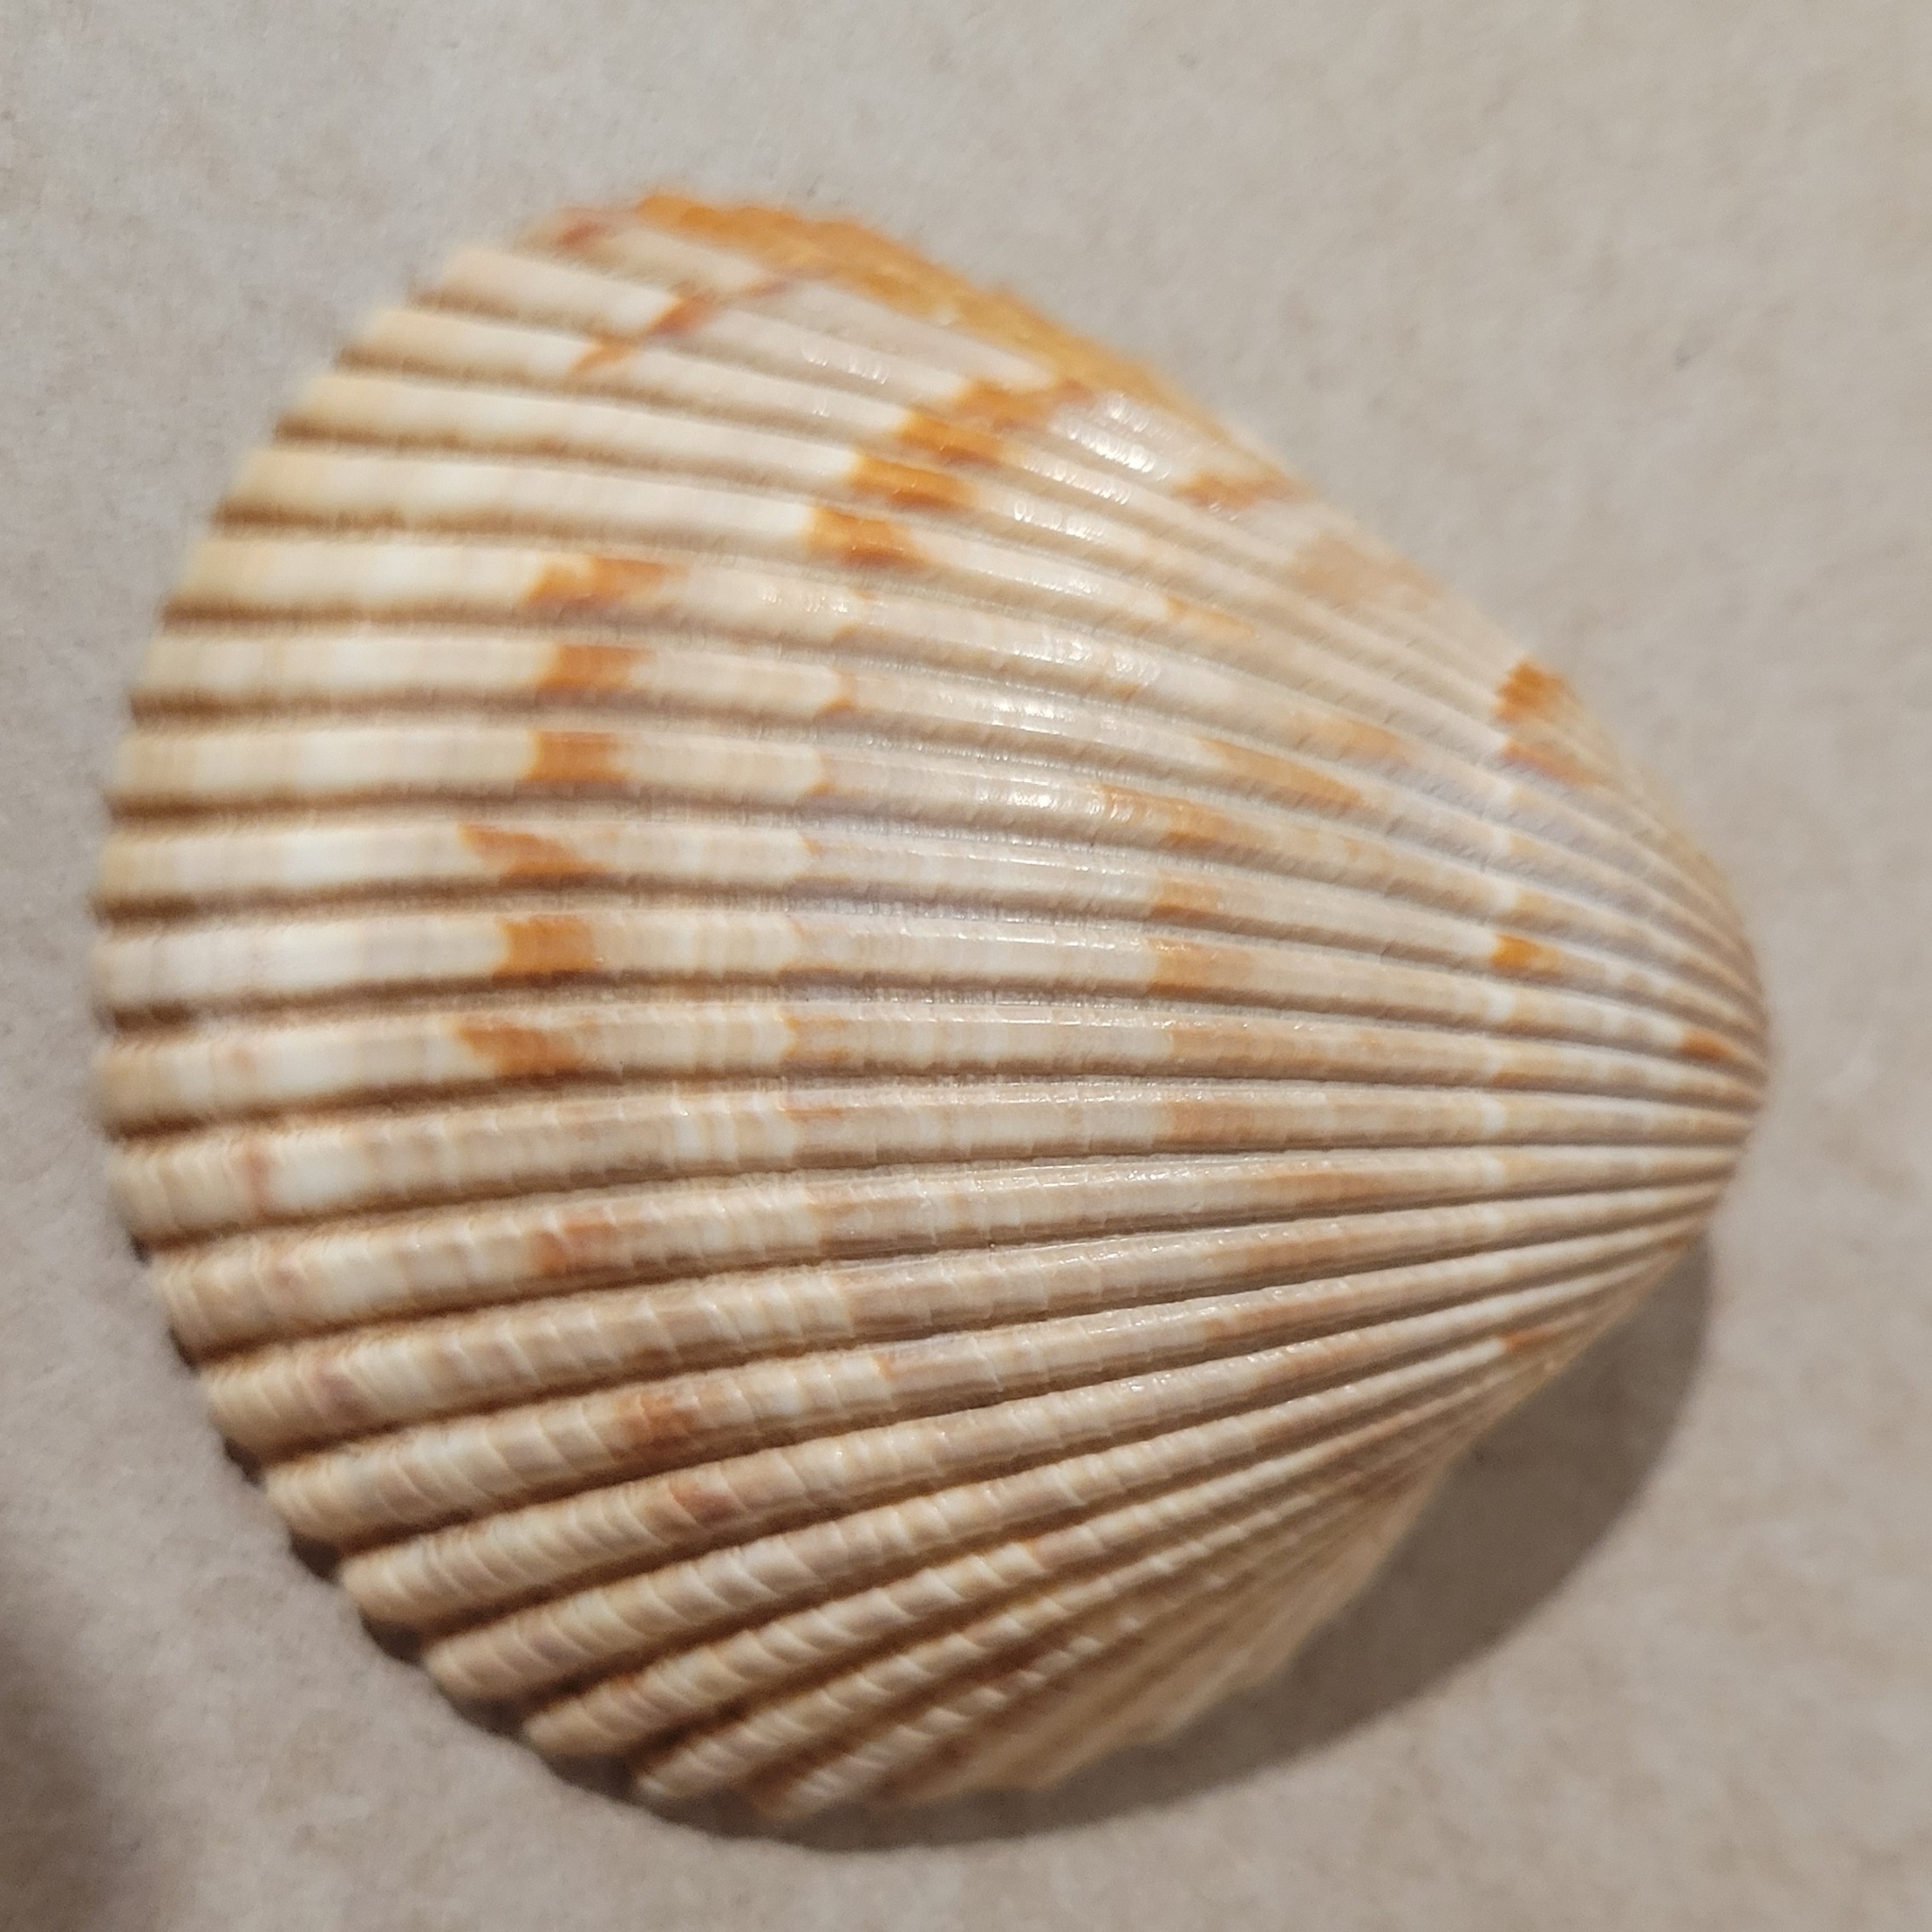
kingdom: Animalia
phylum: Mollusca
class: Bivalvia
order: Cardiida
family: Cardiidae
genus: Dinocardium
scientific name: Dinocardium robustum
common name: Atlantic giant cockle
